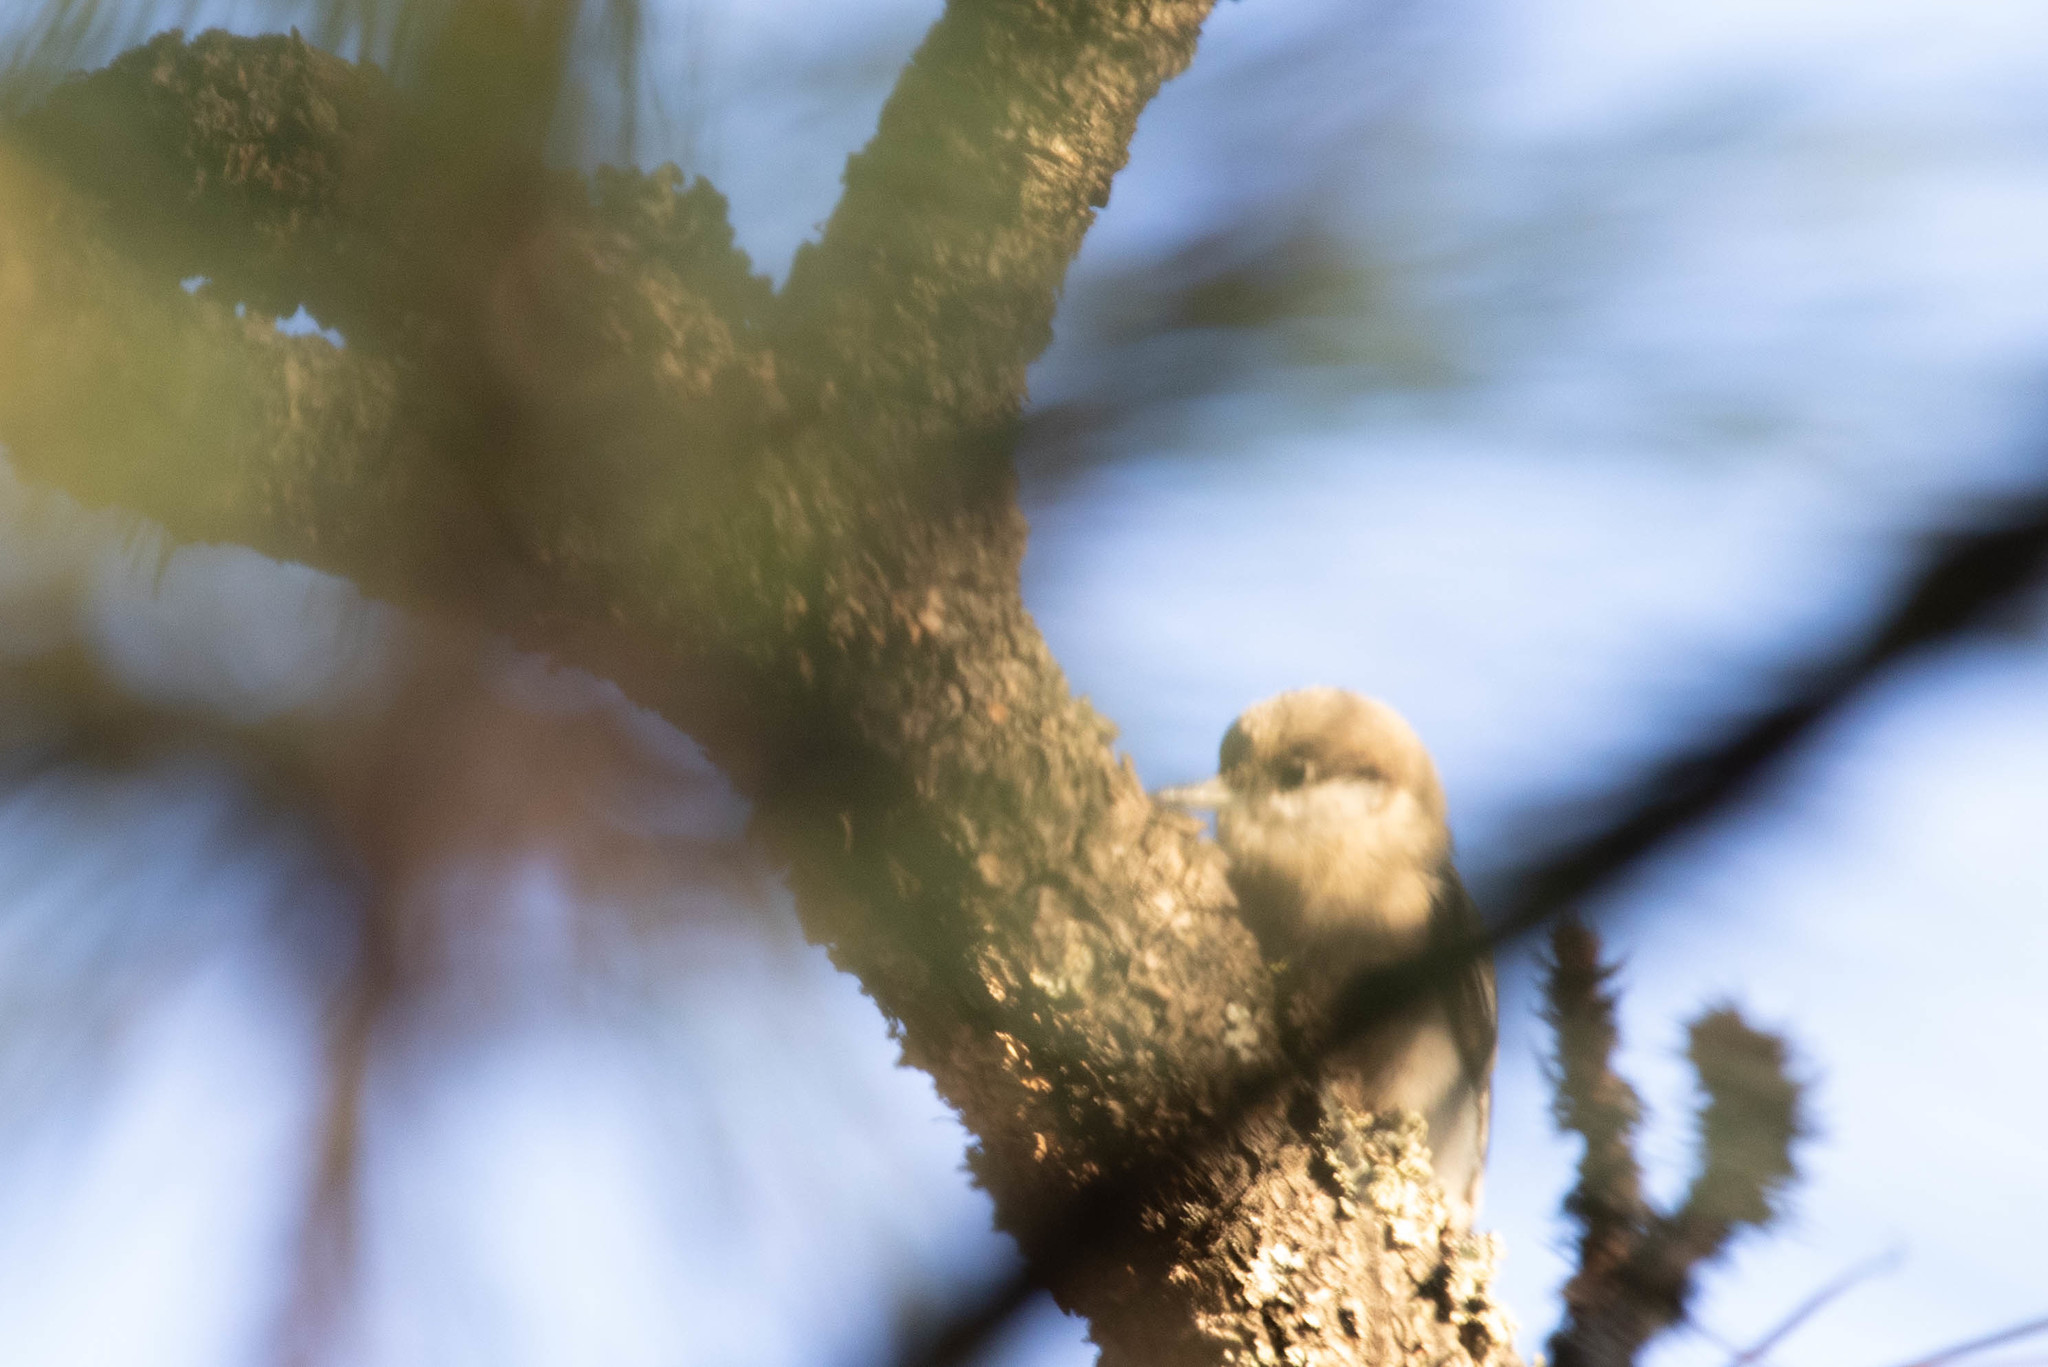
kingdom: Animalia
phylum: Chordata
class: Aves
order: Passeriformes
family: Sittidae
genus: Sitta
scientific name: Sitta pygmaea
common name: Pygmy nuthatch
